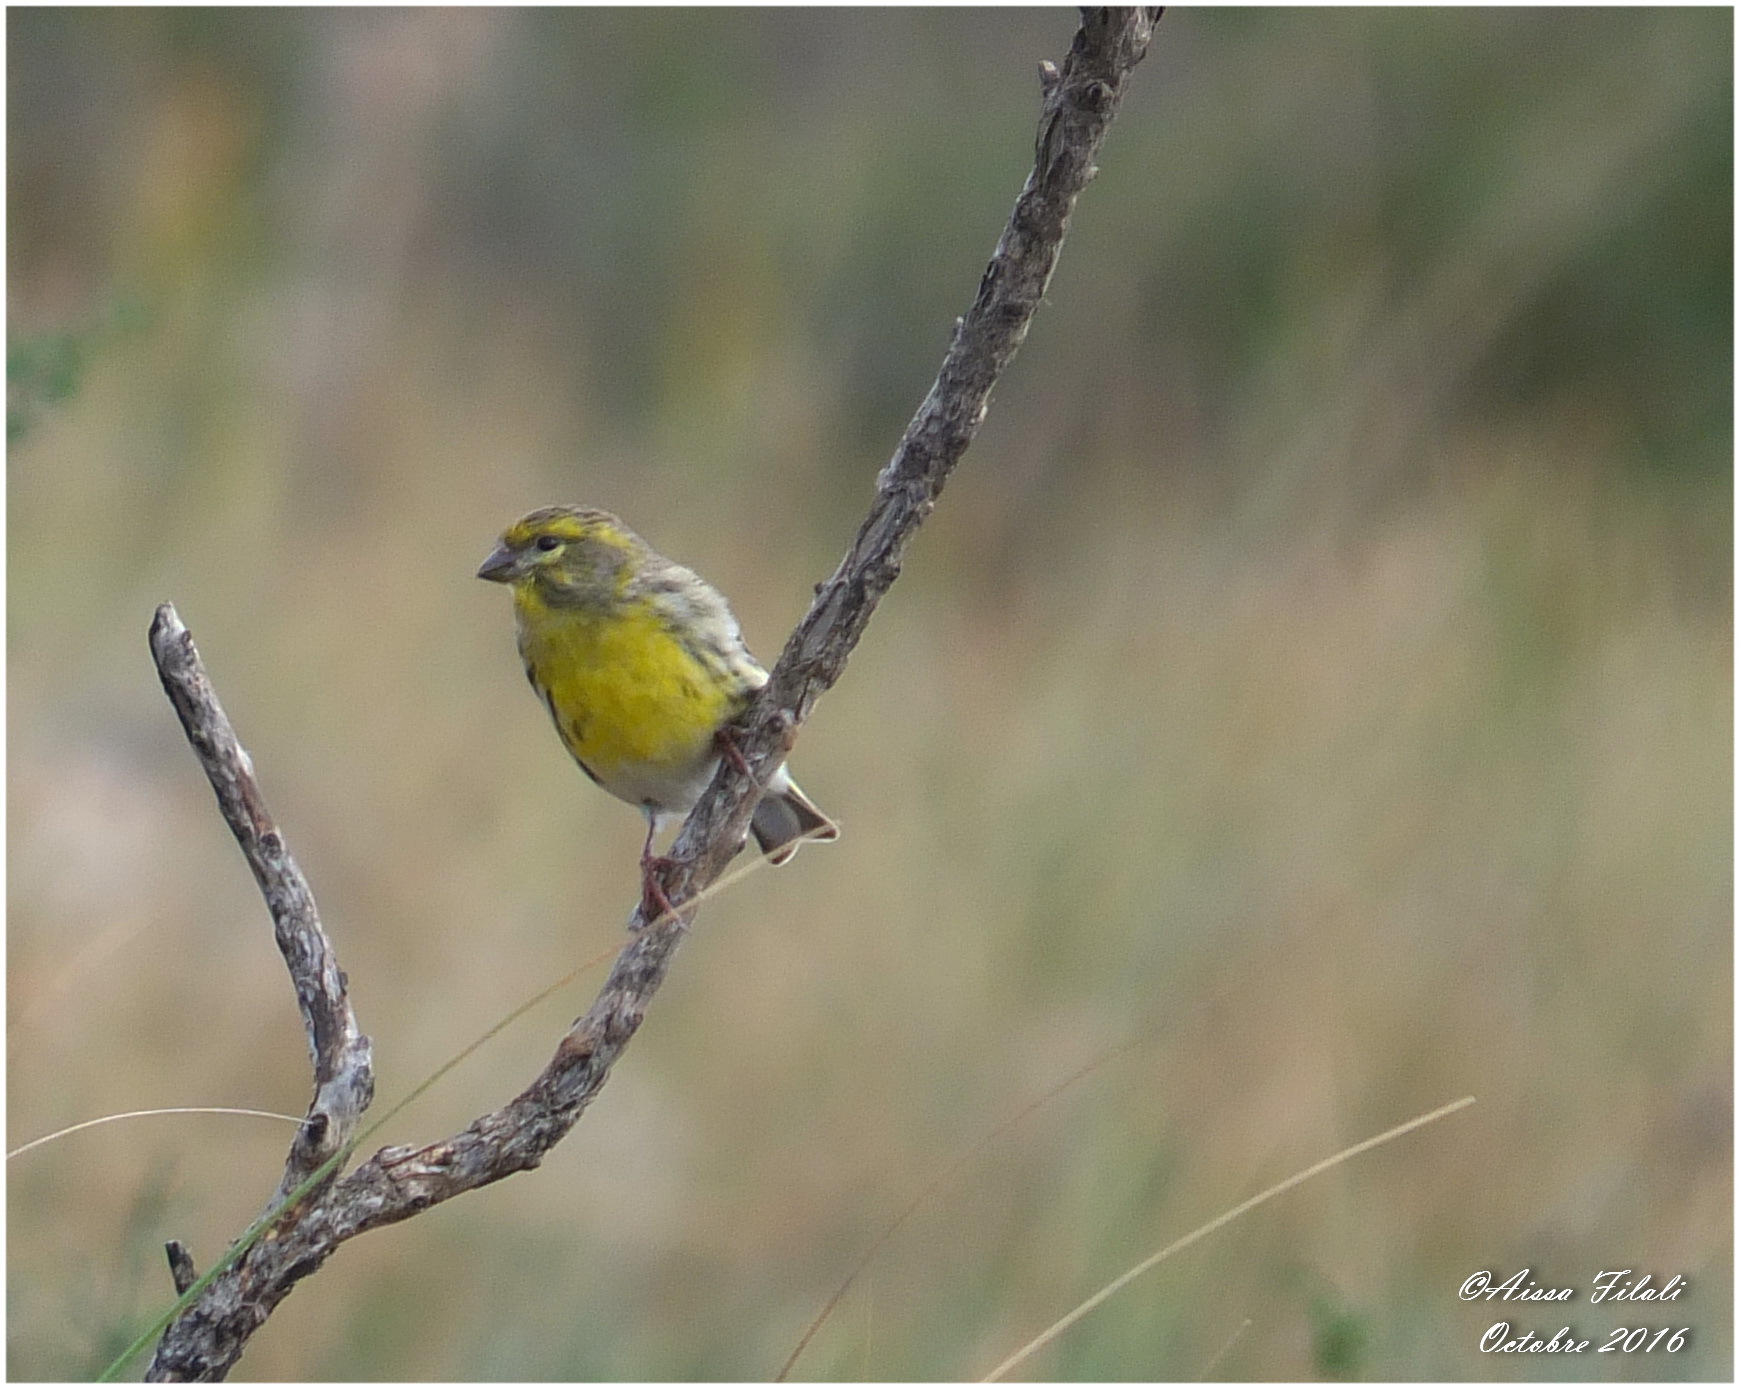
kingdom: Animalia
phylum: Chordata
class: Aves
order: Passeriformes
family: Fringillidae
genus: Serinus
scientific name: Serinus serinus
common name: European serin
